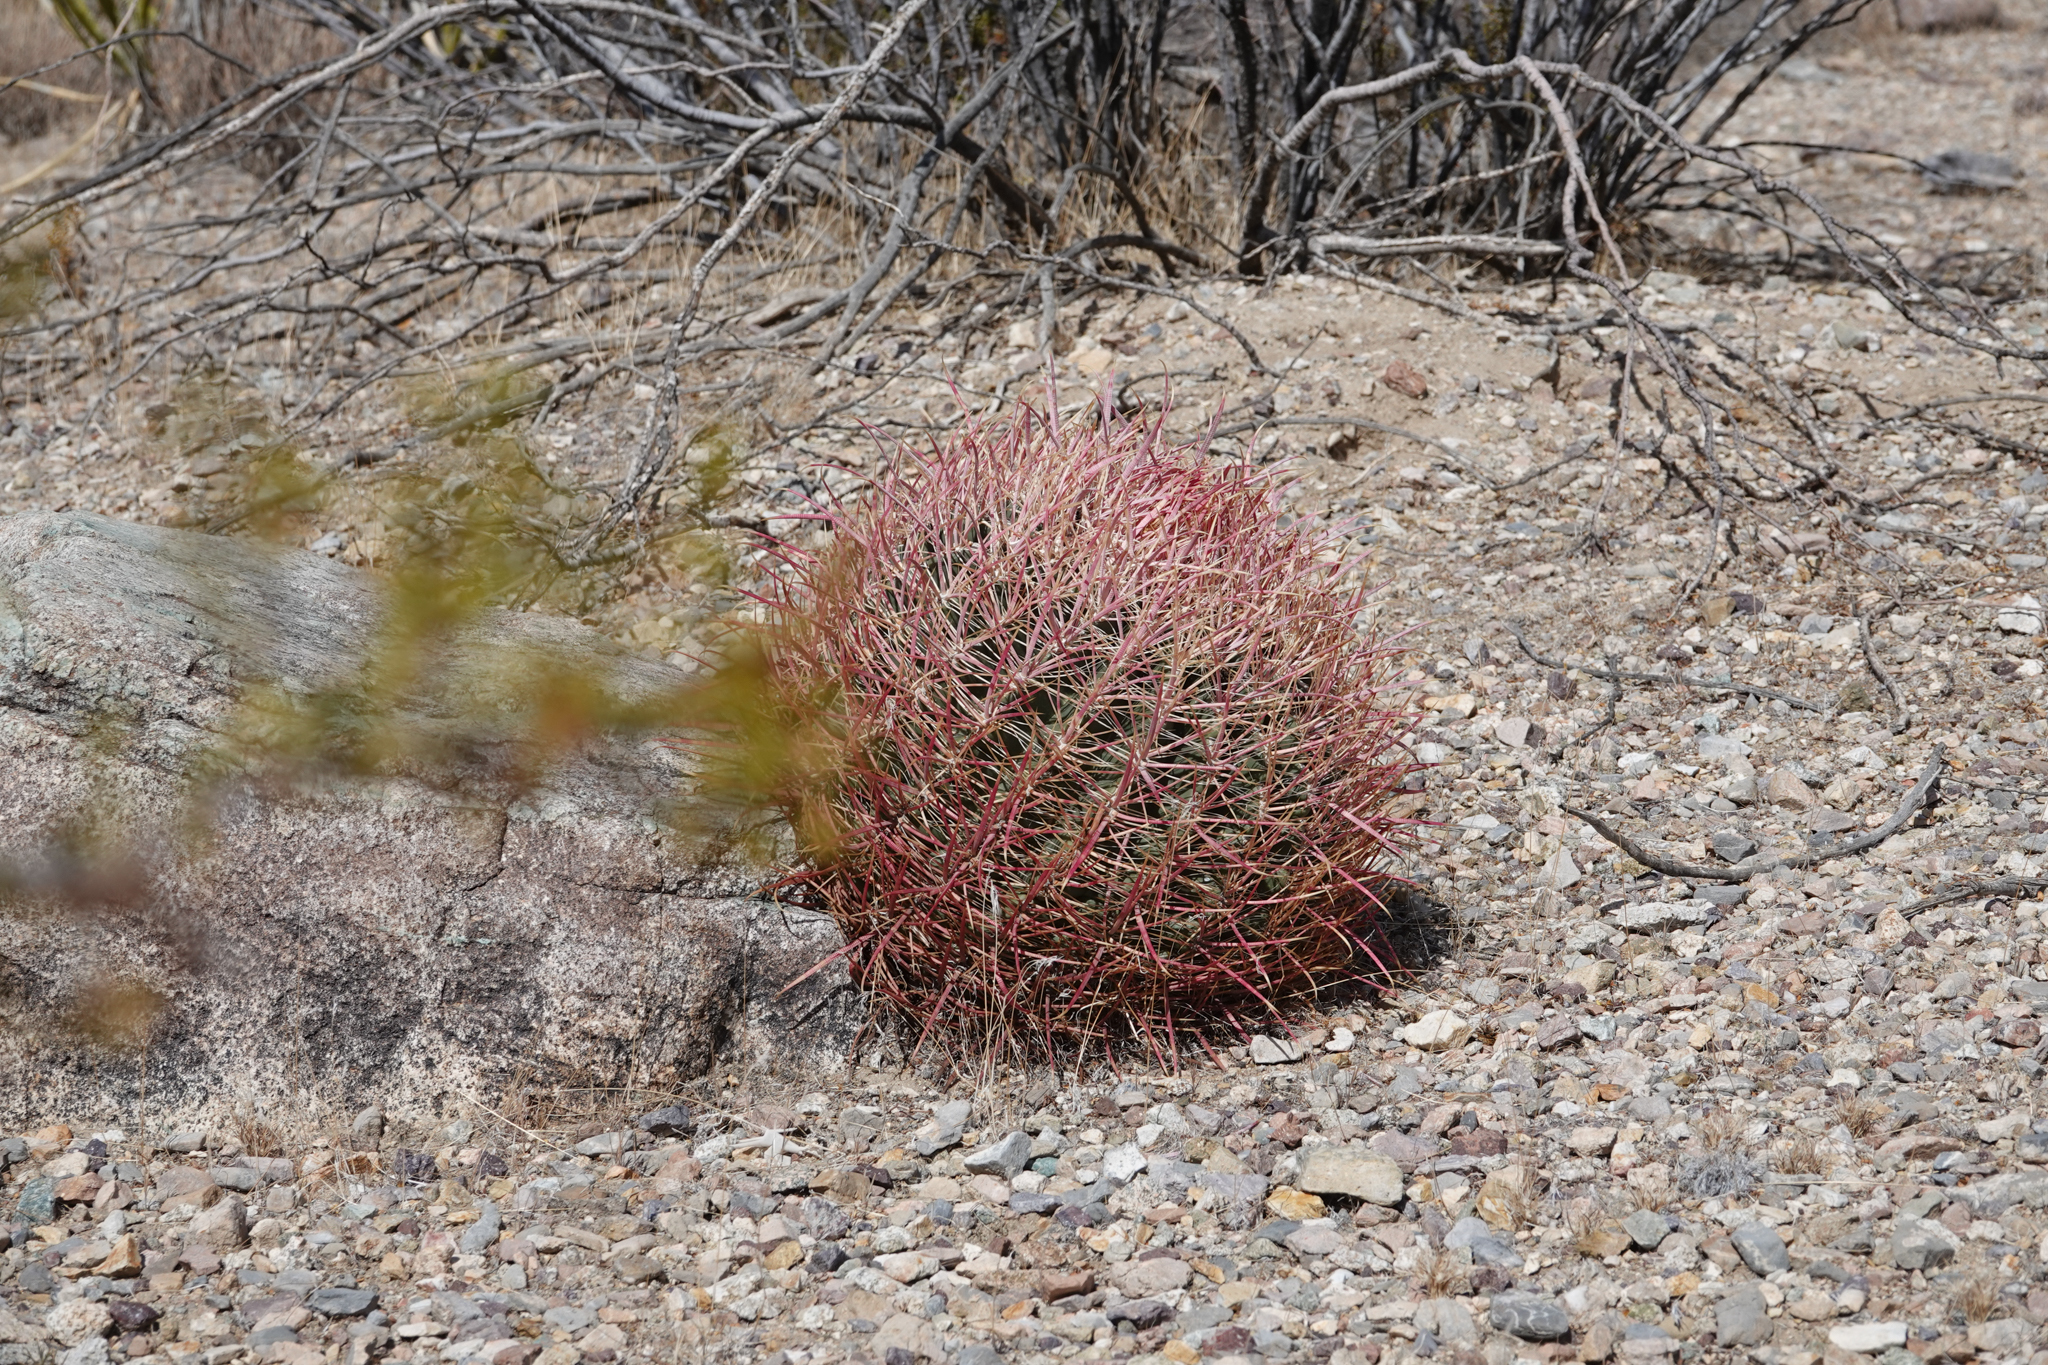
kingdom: Plantae
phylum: Tracheophyta
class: Magnoliopsida
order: Caryophyllales
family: Cactaceae
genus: Ferocactus
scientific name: Ferocactus cylindraceus
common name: California barrel cactus
